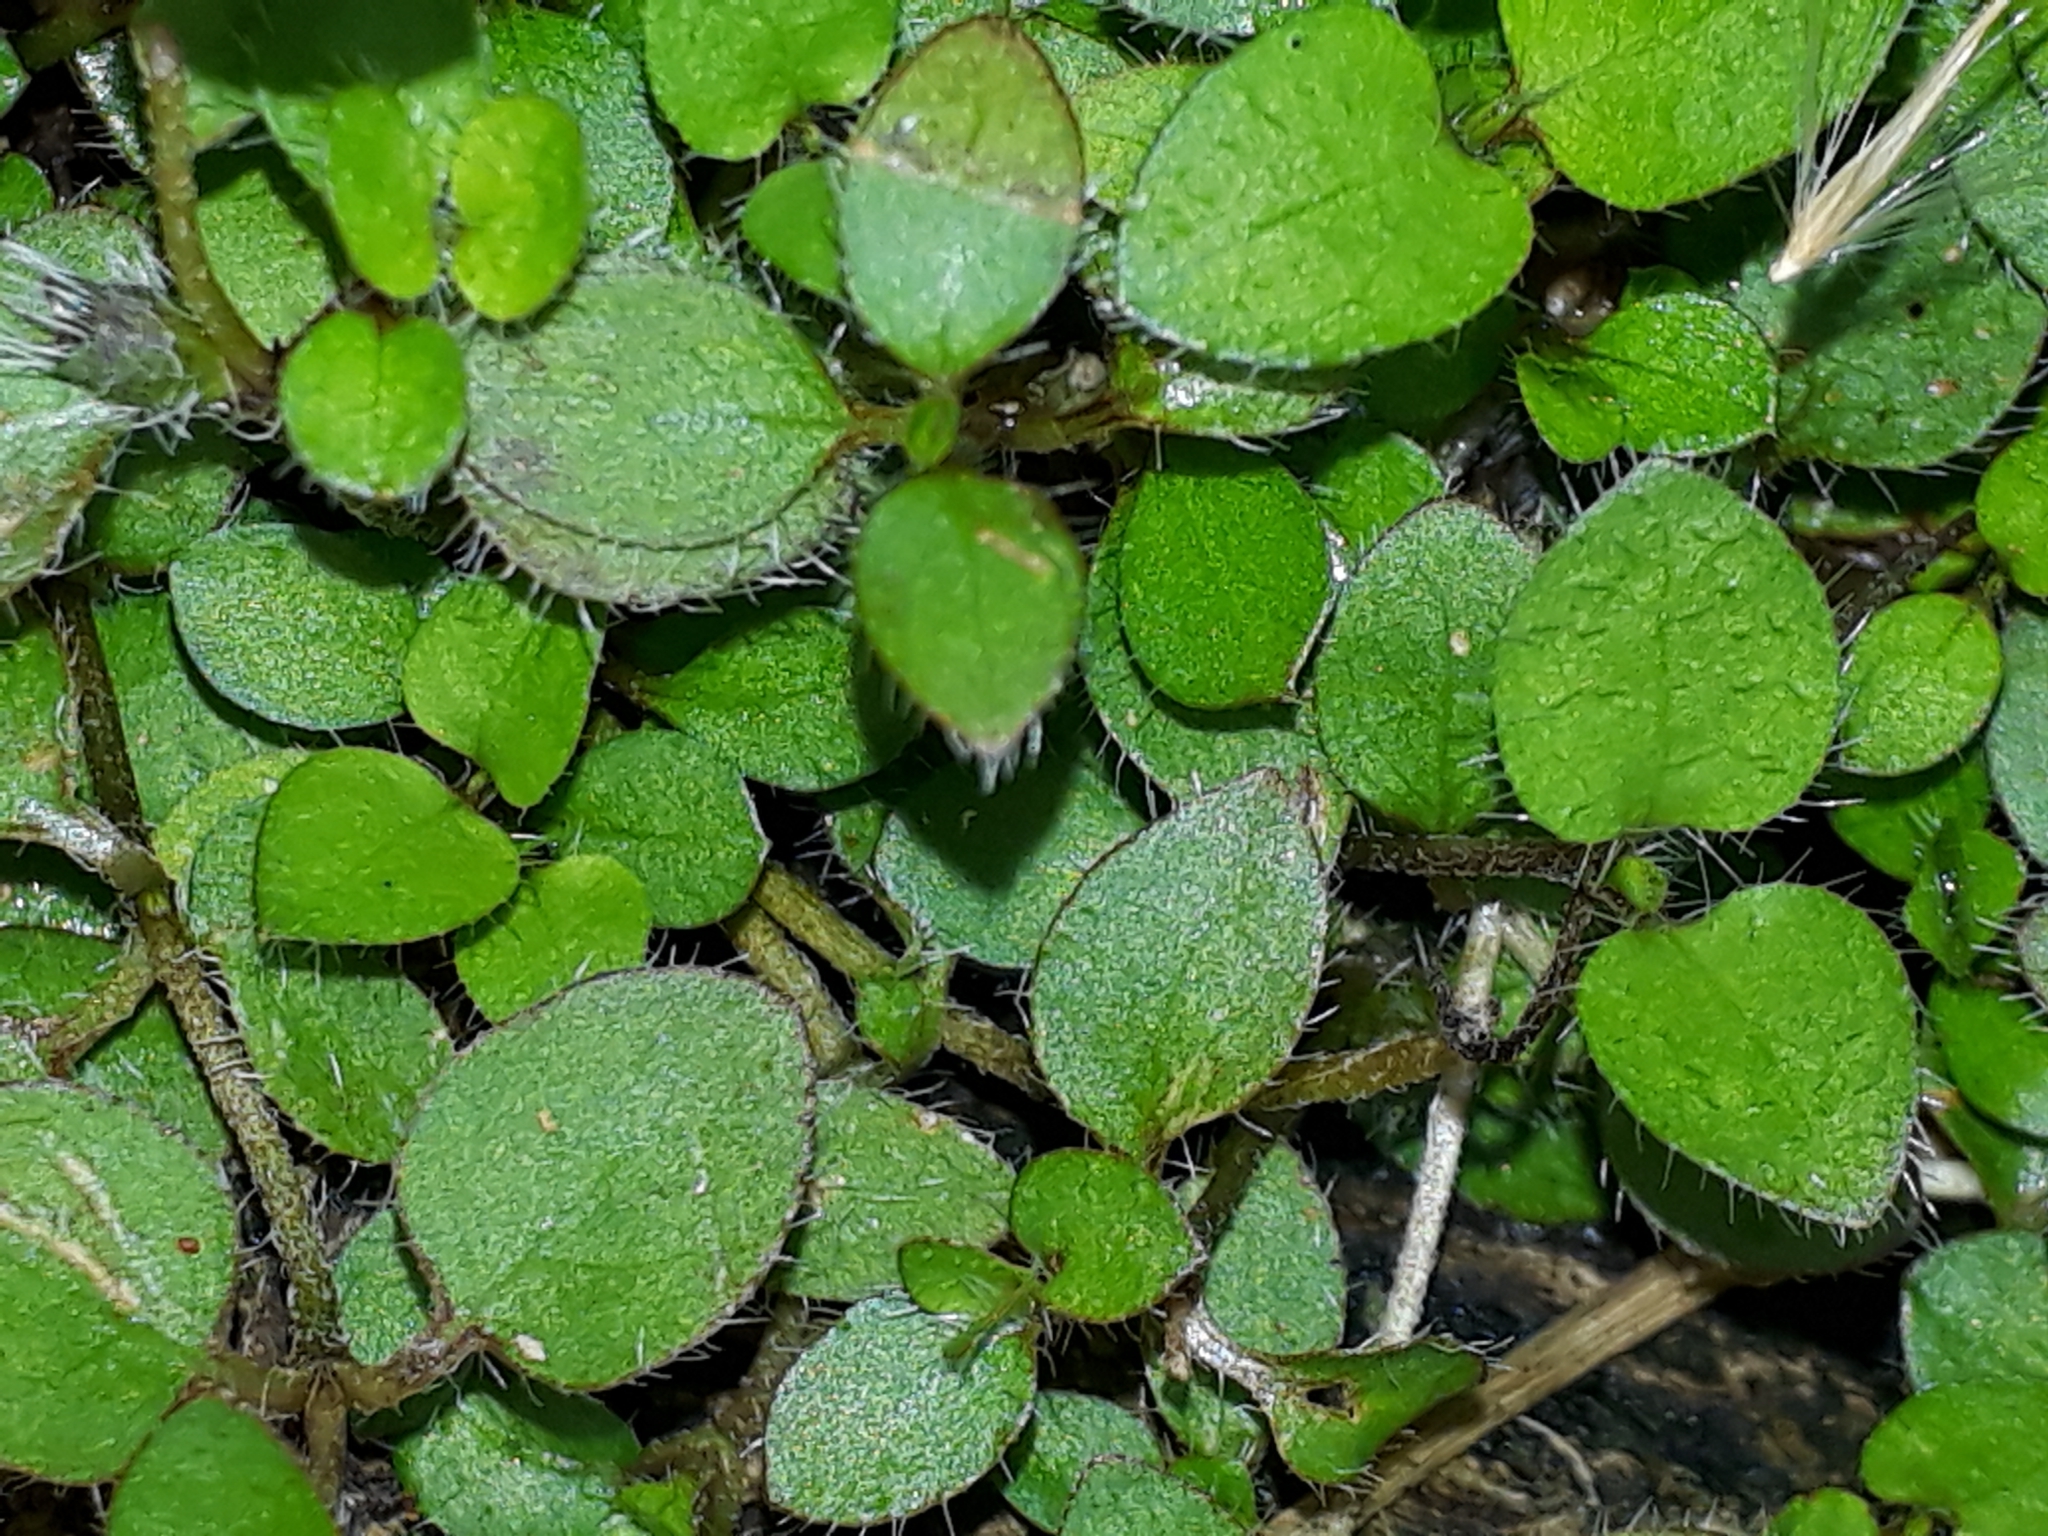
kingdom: Plantae
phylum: Tracheophyta
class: Magnoliopsida
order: Gentianales
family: Rubiaceae
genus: Leptostigma
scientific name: Leptostigma setulosum
